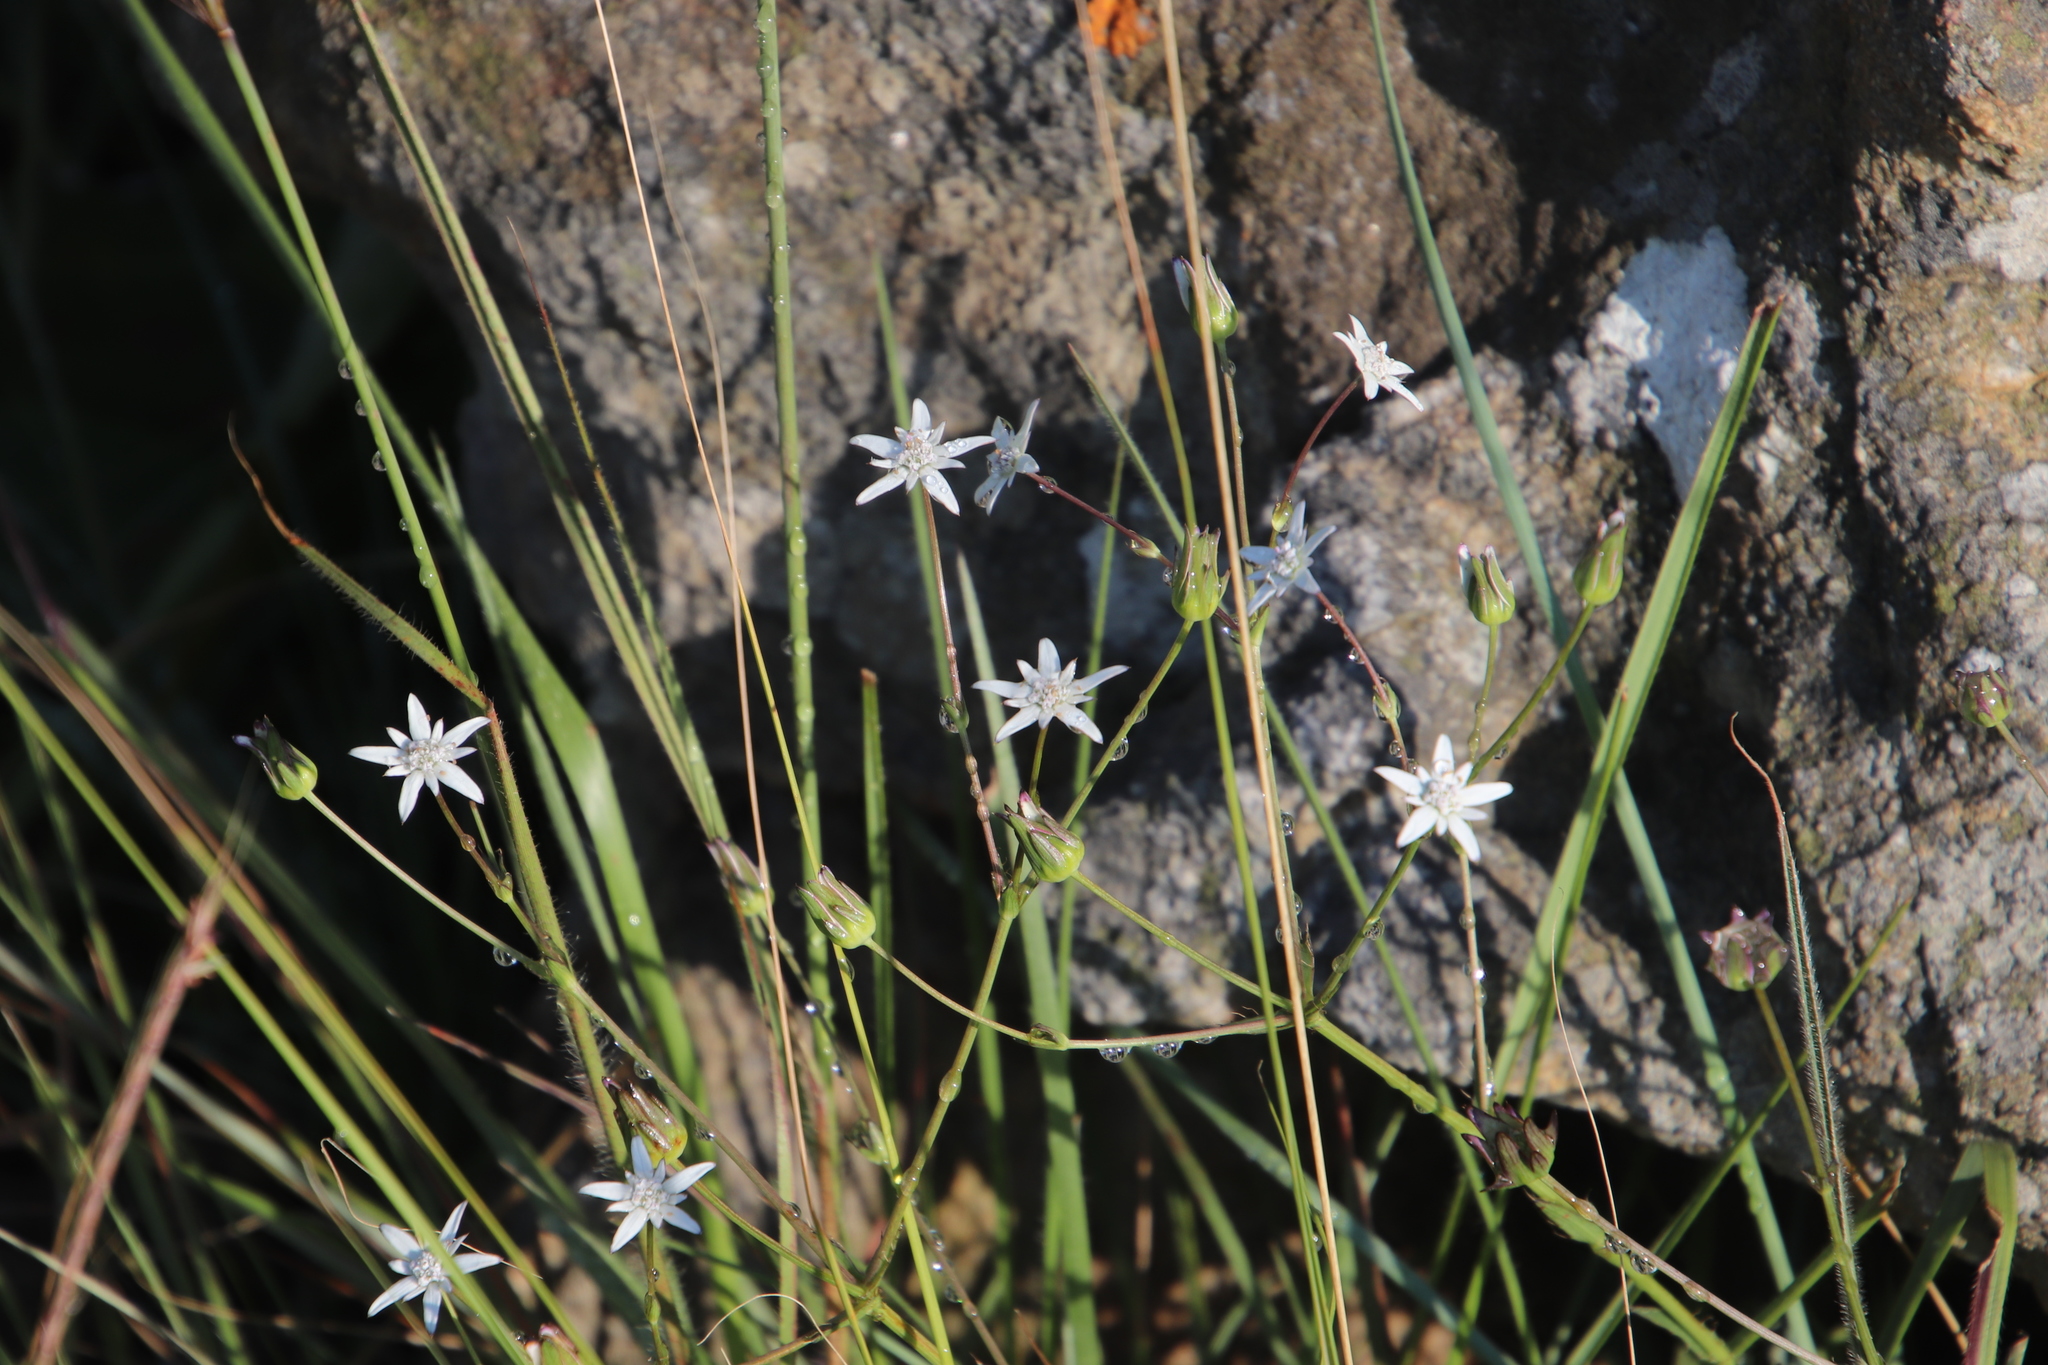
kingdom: Plantae
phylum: Tracheophyta
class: Magnoliopsida
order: Apiales
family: Apiaceae
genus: Alepidea
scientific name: Alepidea peduncularis
